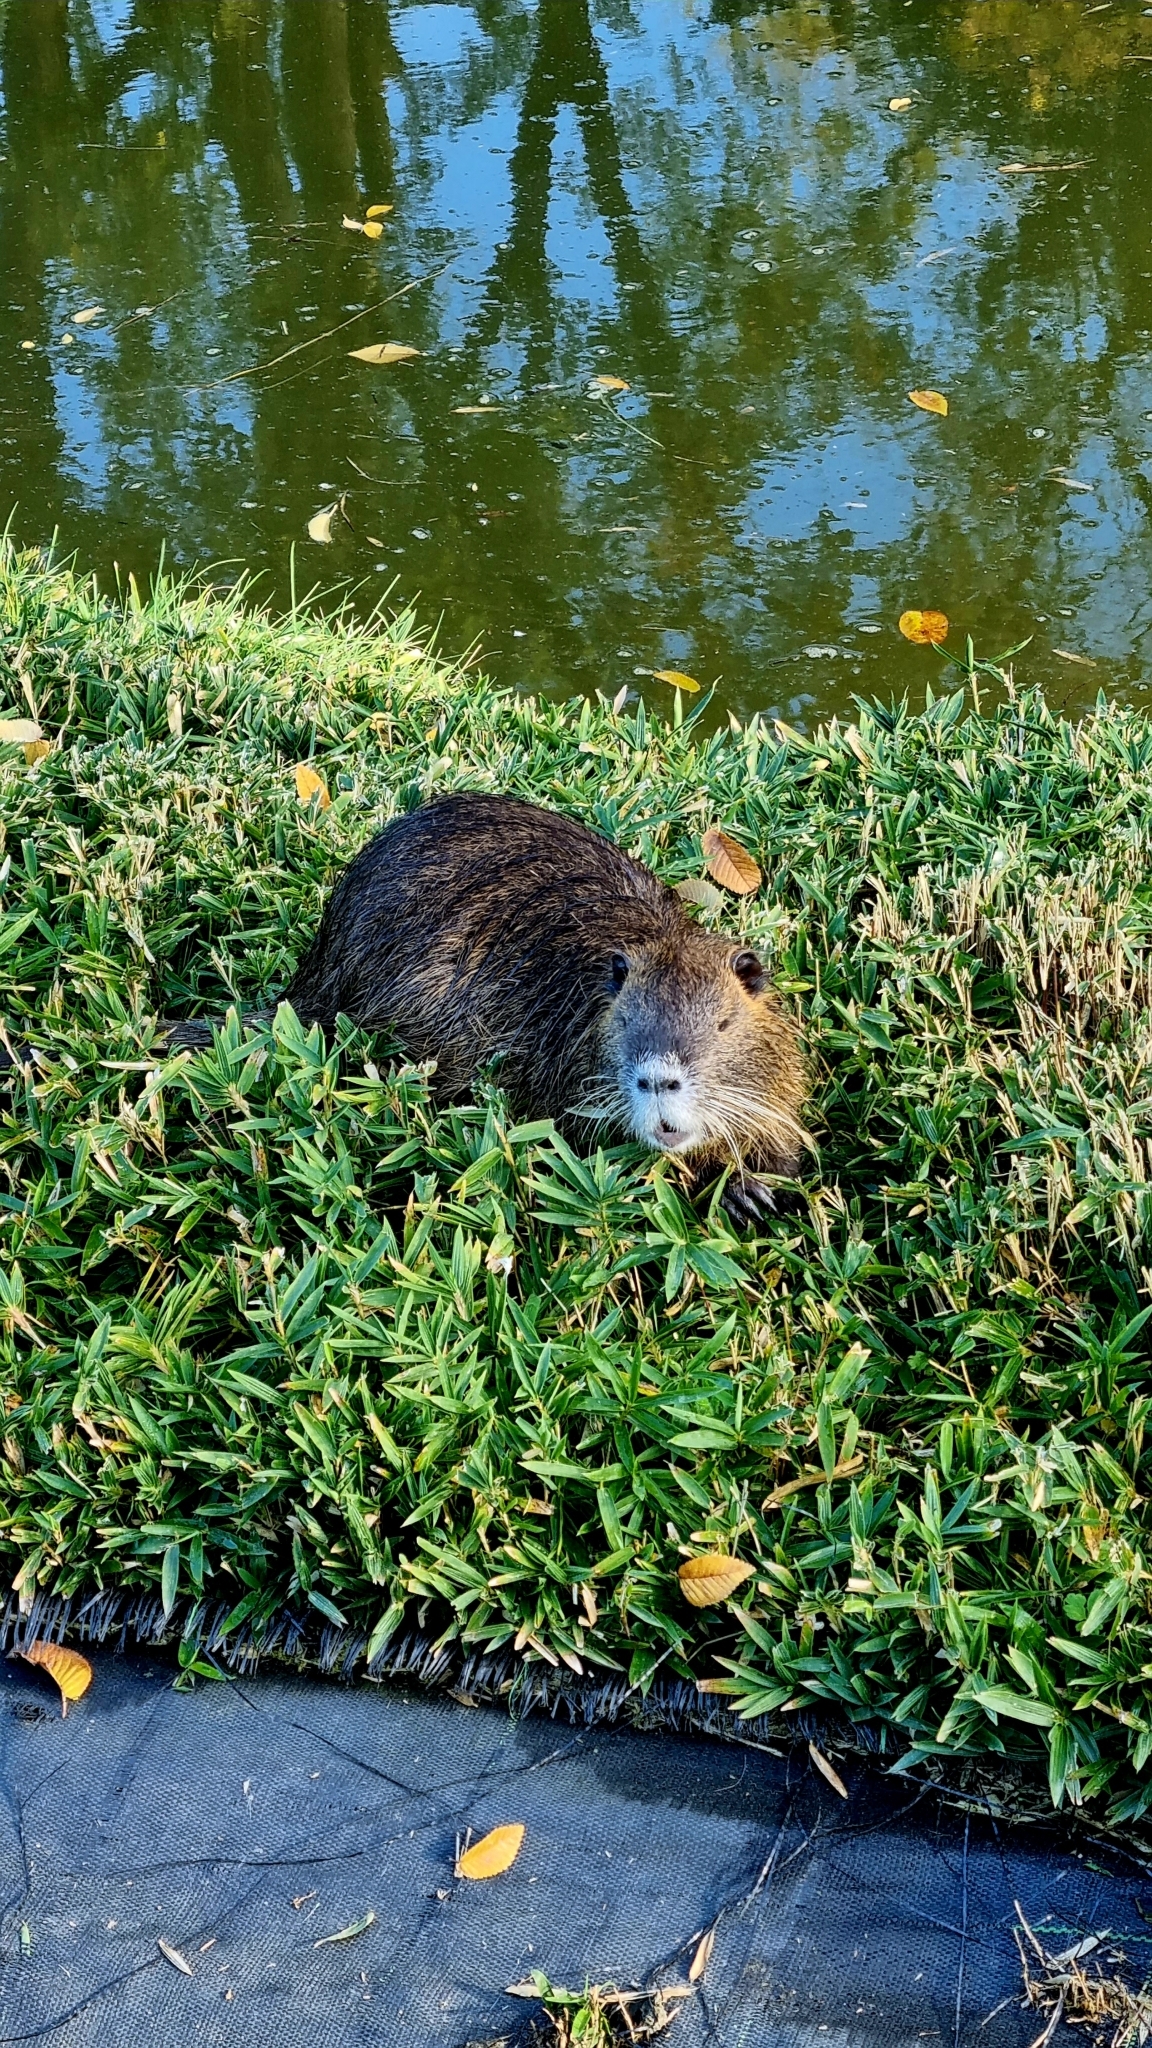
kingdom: Animalia
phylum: Chordata
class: Mammalia
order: Rodentia
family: Myocastoridae
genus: Myocastor
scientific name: Myocastor coypus
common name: Coypu
